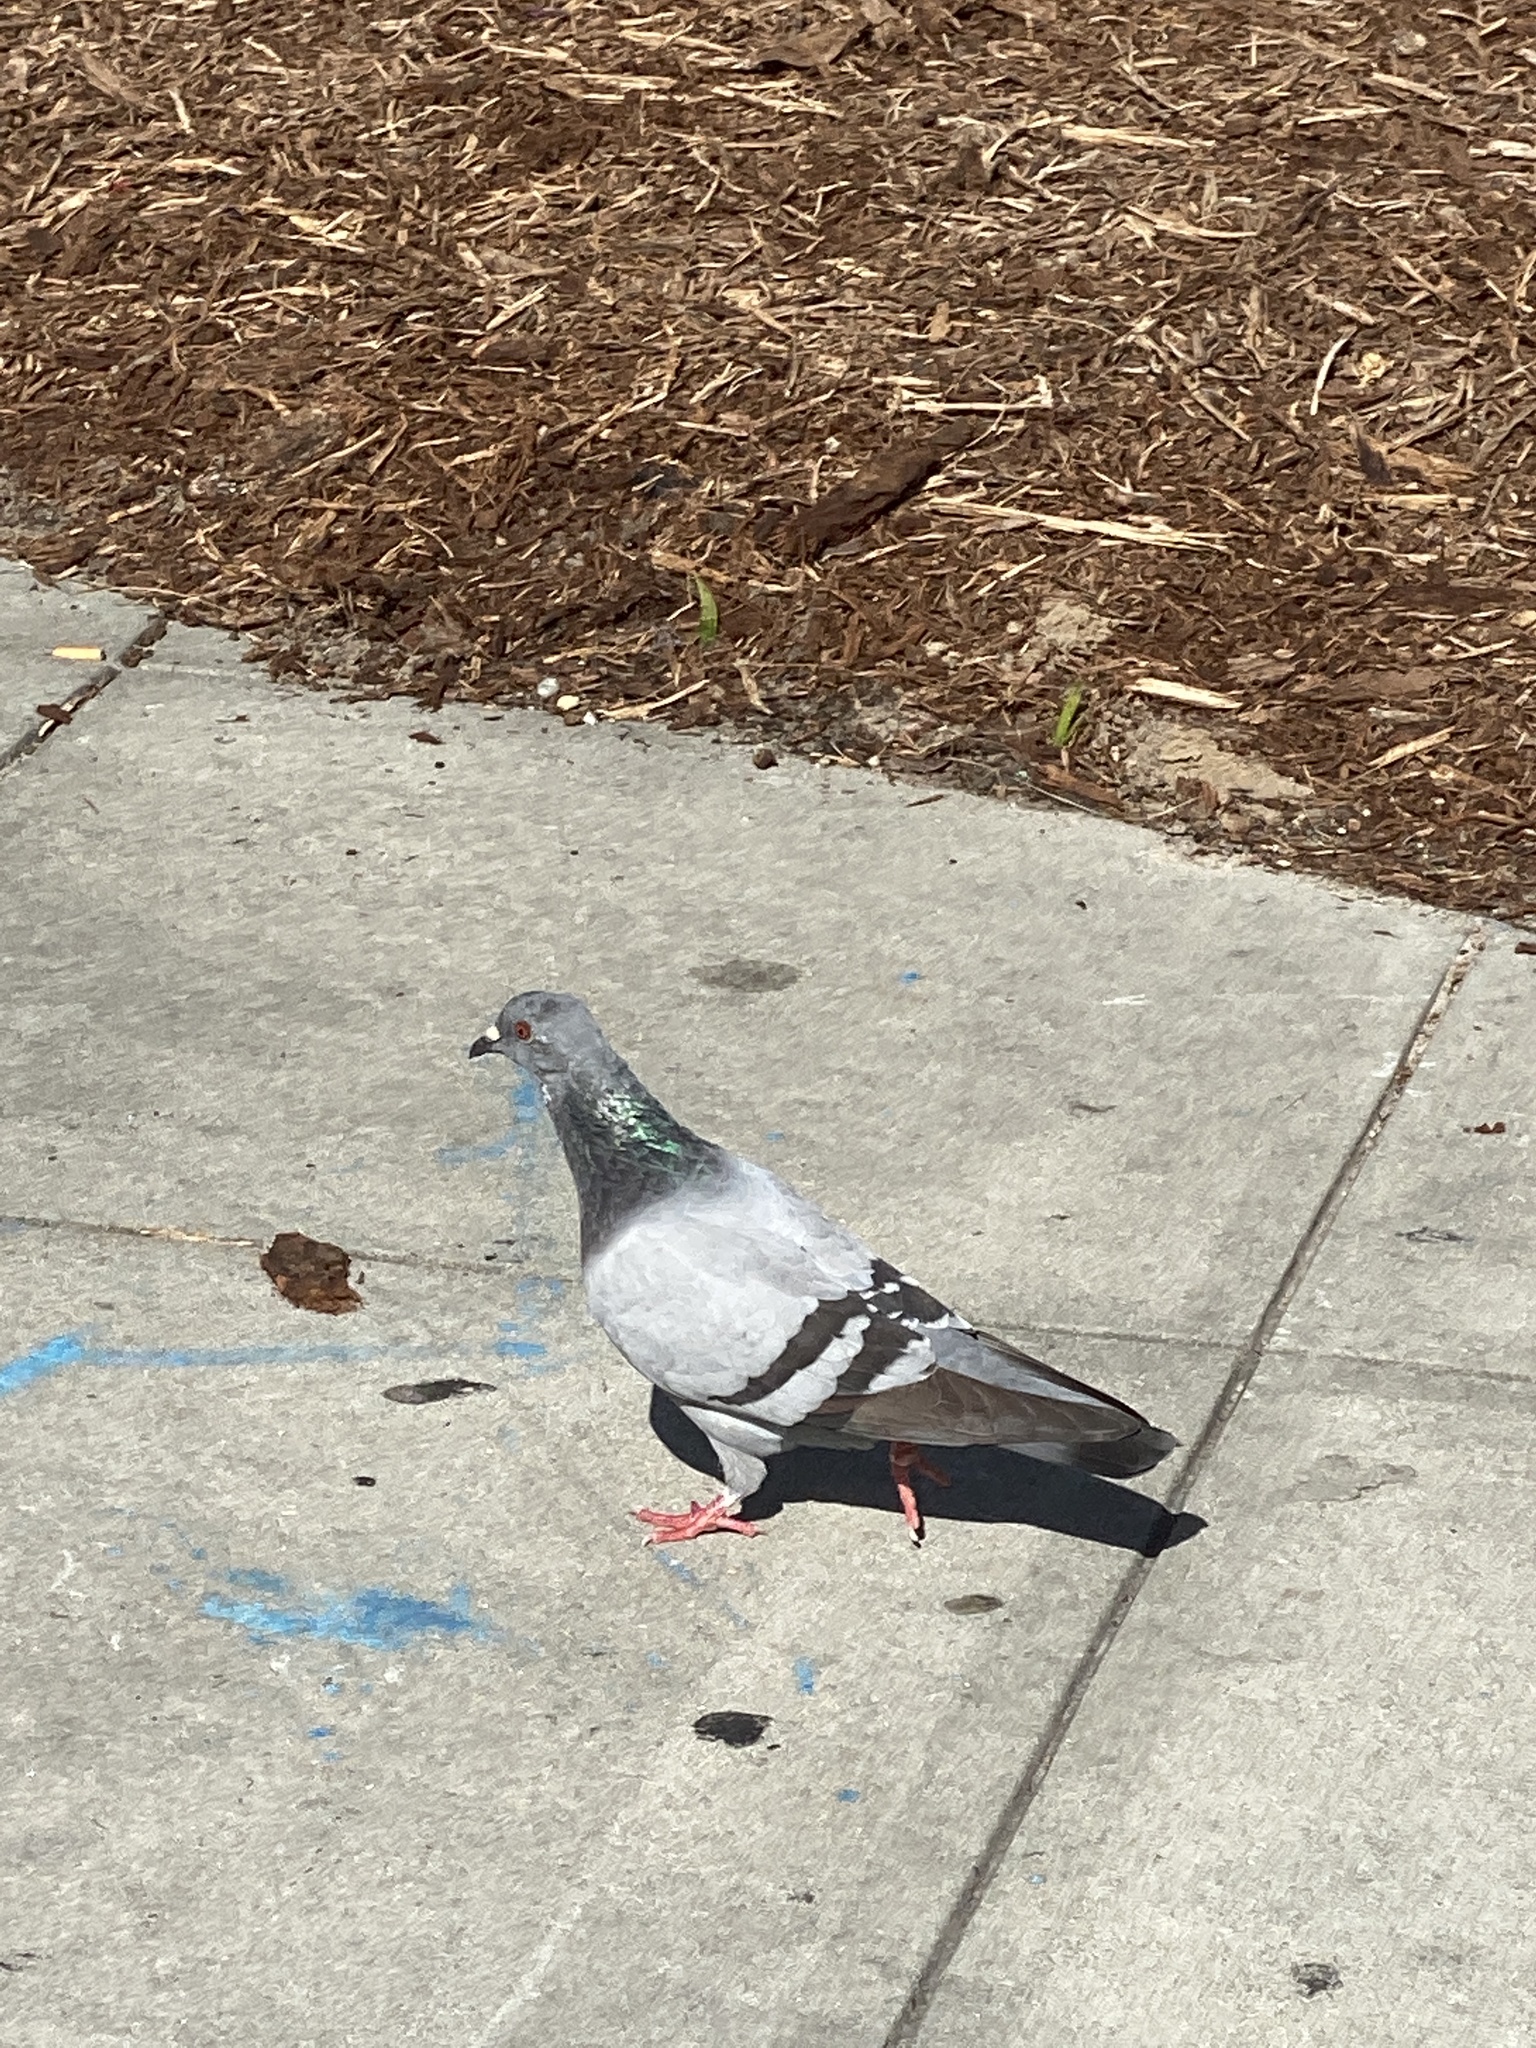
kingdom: Animalia
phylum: Chordata
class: Aves
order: Columbiformes
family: Columbidae
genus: Columba
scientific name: Columba livia
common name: Rock pigeon
